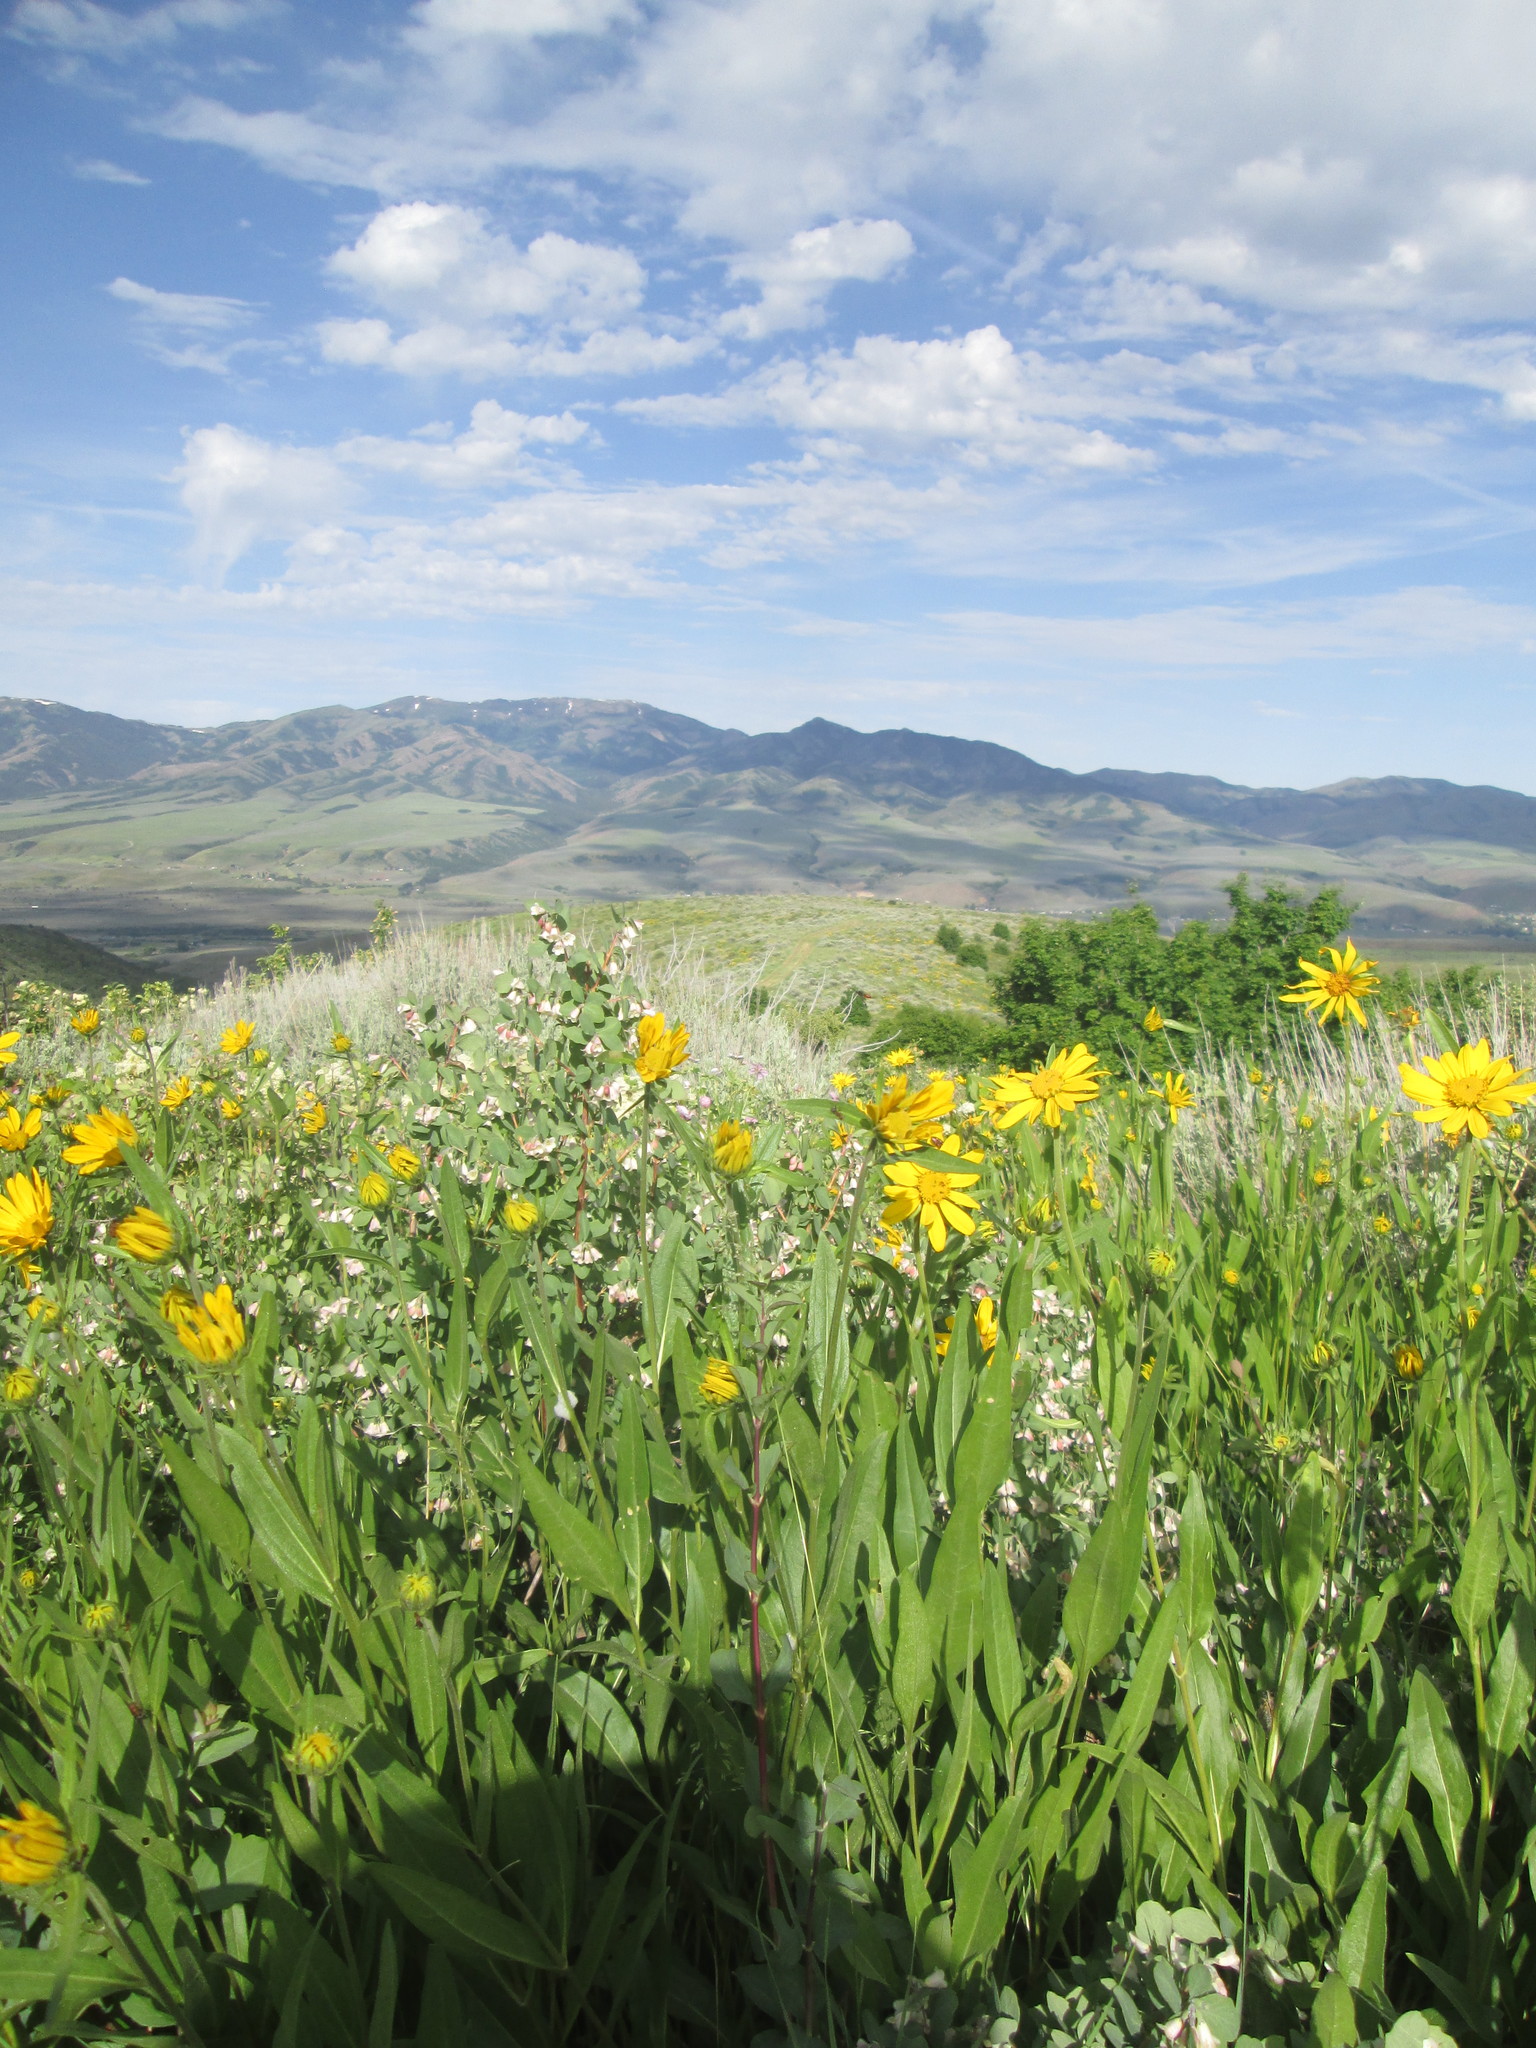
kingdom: Plantae
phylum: Tracheophyta
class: Magnoliopsida
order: Asterales
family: Asteraceae
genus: Helianthella
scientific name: Helianthella uniflora
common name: Rocky mountain dwarf sunflower
